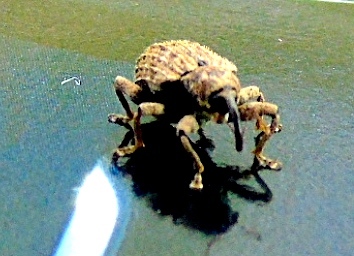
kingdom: Animalia
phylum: Arthropoda
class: Insecta
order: Coleoptera
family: Curculionidae
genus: Conotrachelus
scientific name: Conotrachelus
